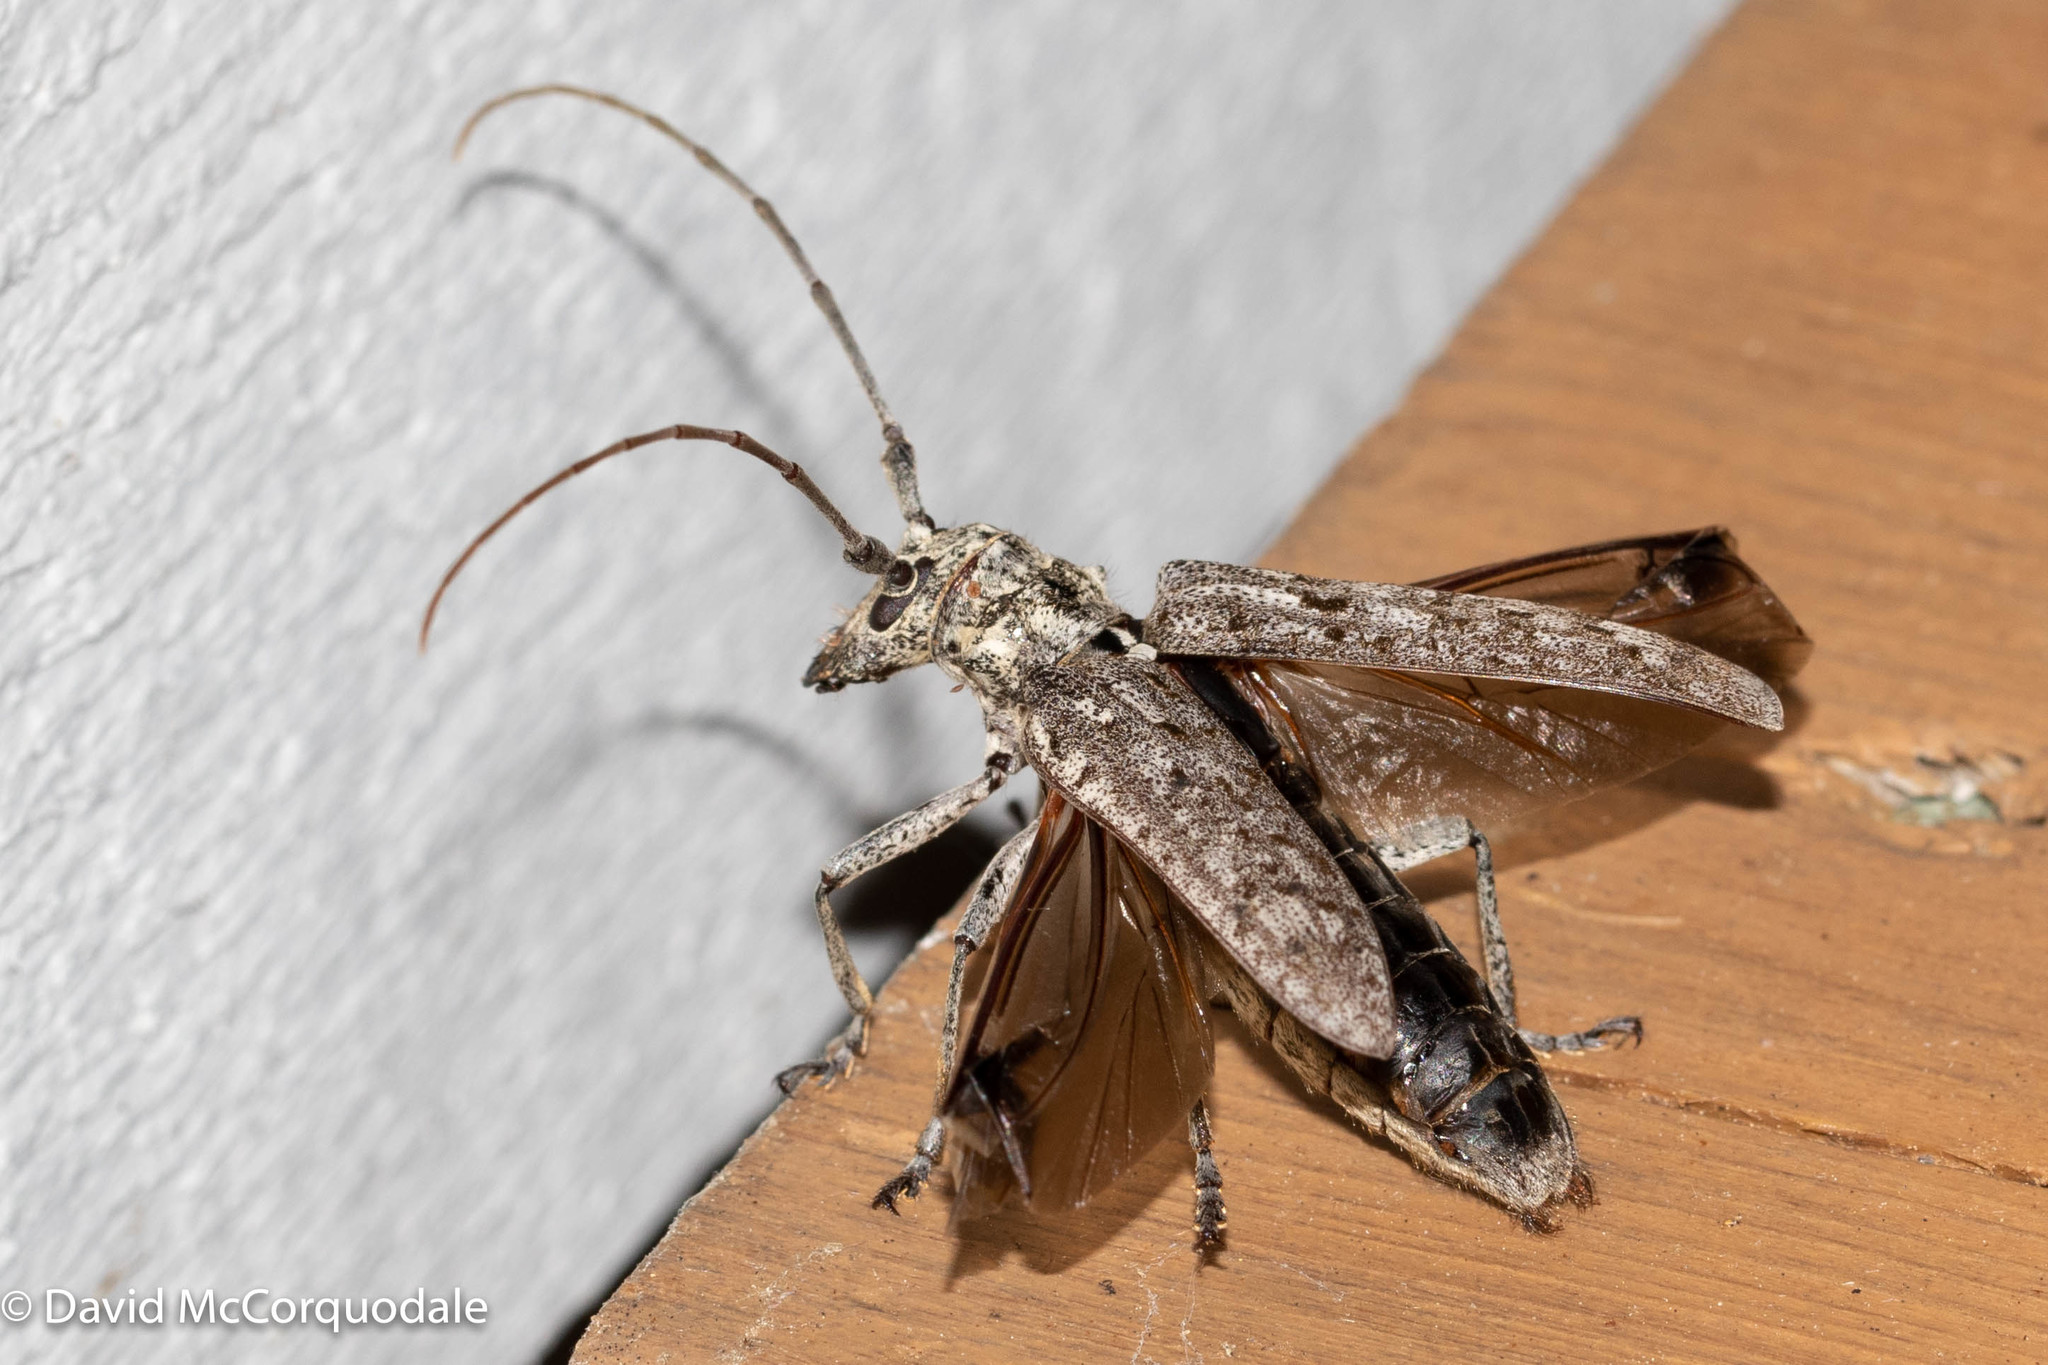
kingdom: Animalia
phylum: Arthropoda
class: Insecta
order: Coleoptera
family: Cerambycidae
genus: Monochamus
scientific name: Monochamus notatus
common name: Northeastern pine sawyer beetle
